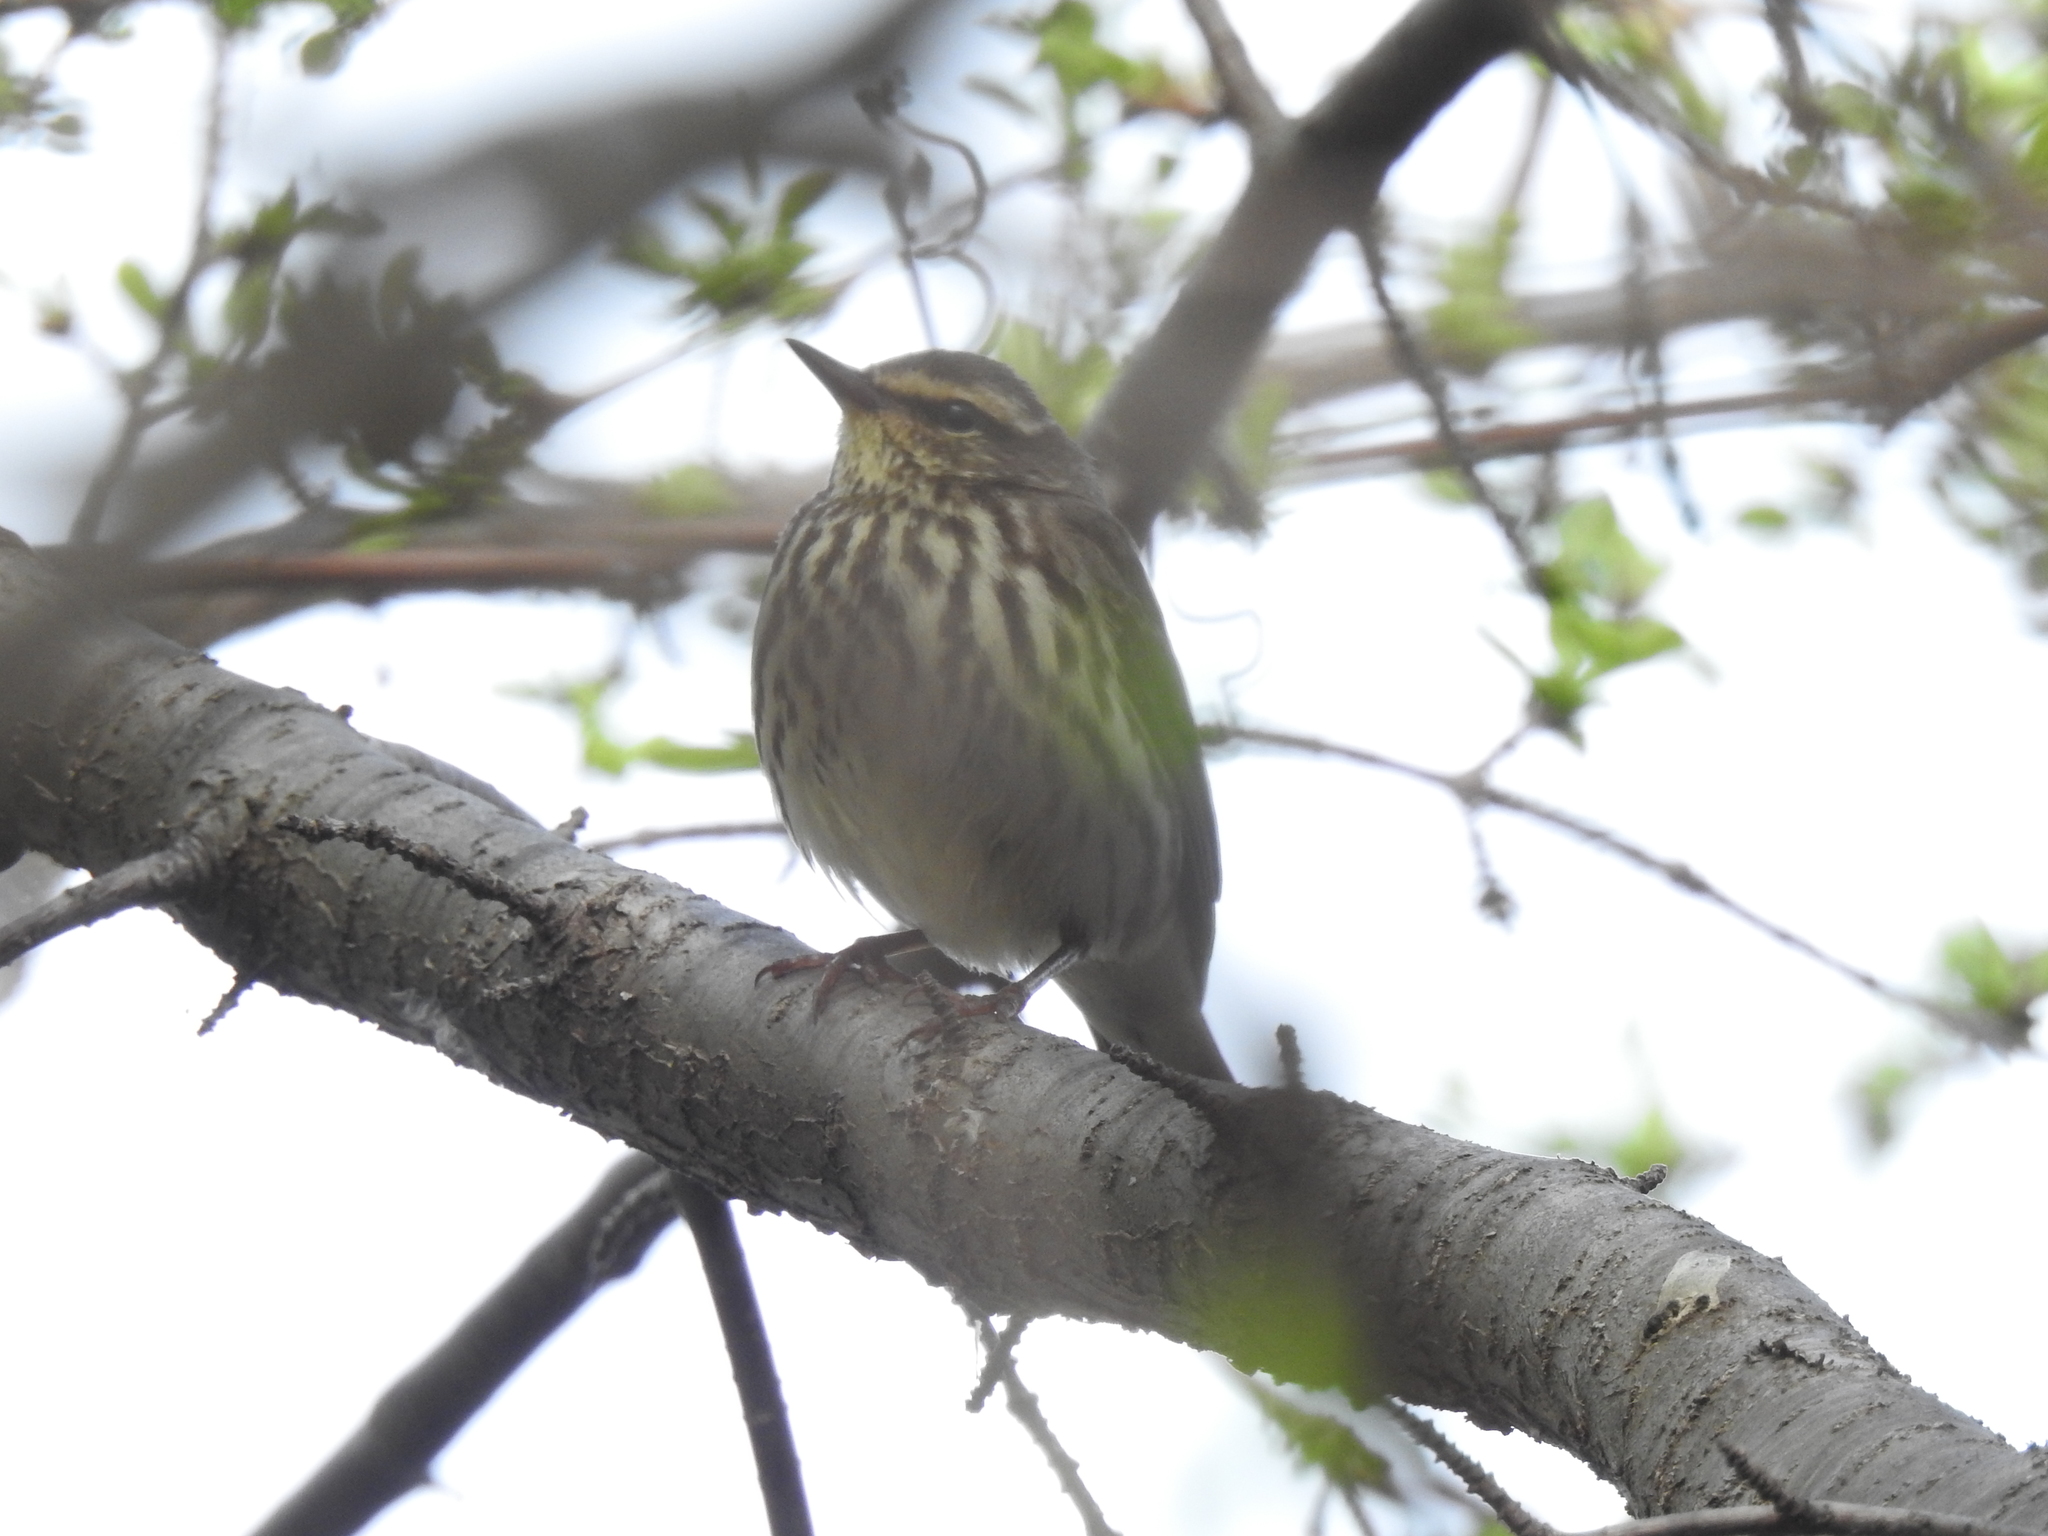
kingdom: Animalia
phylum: Chordata
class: Aves
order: Passeriformes
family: Parulidae
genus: Parkesia
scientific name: Parkesia noveboracensis
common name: Northern waterthrush
